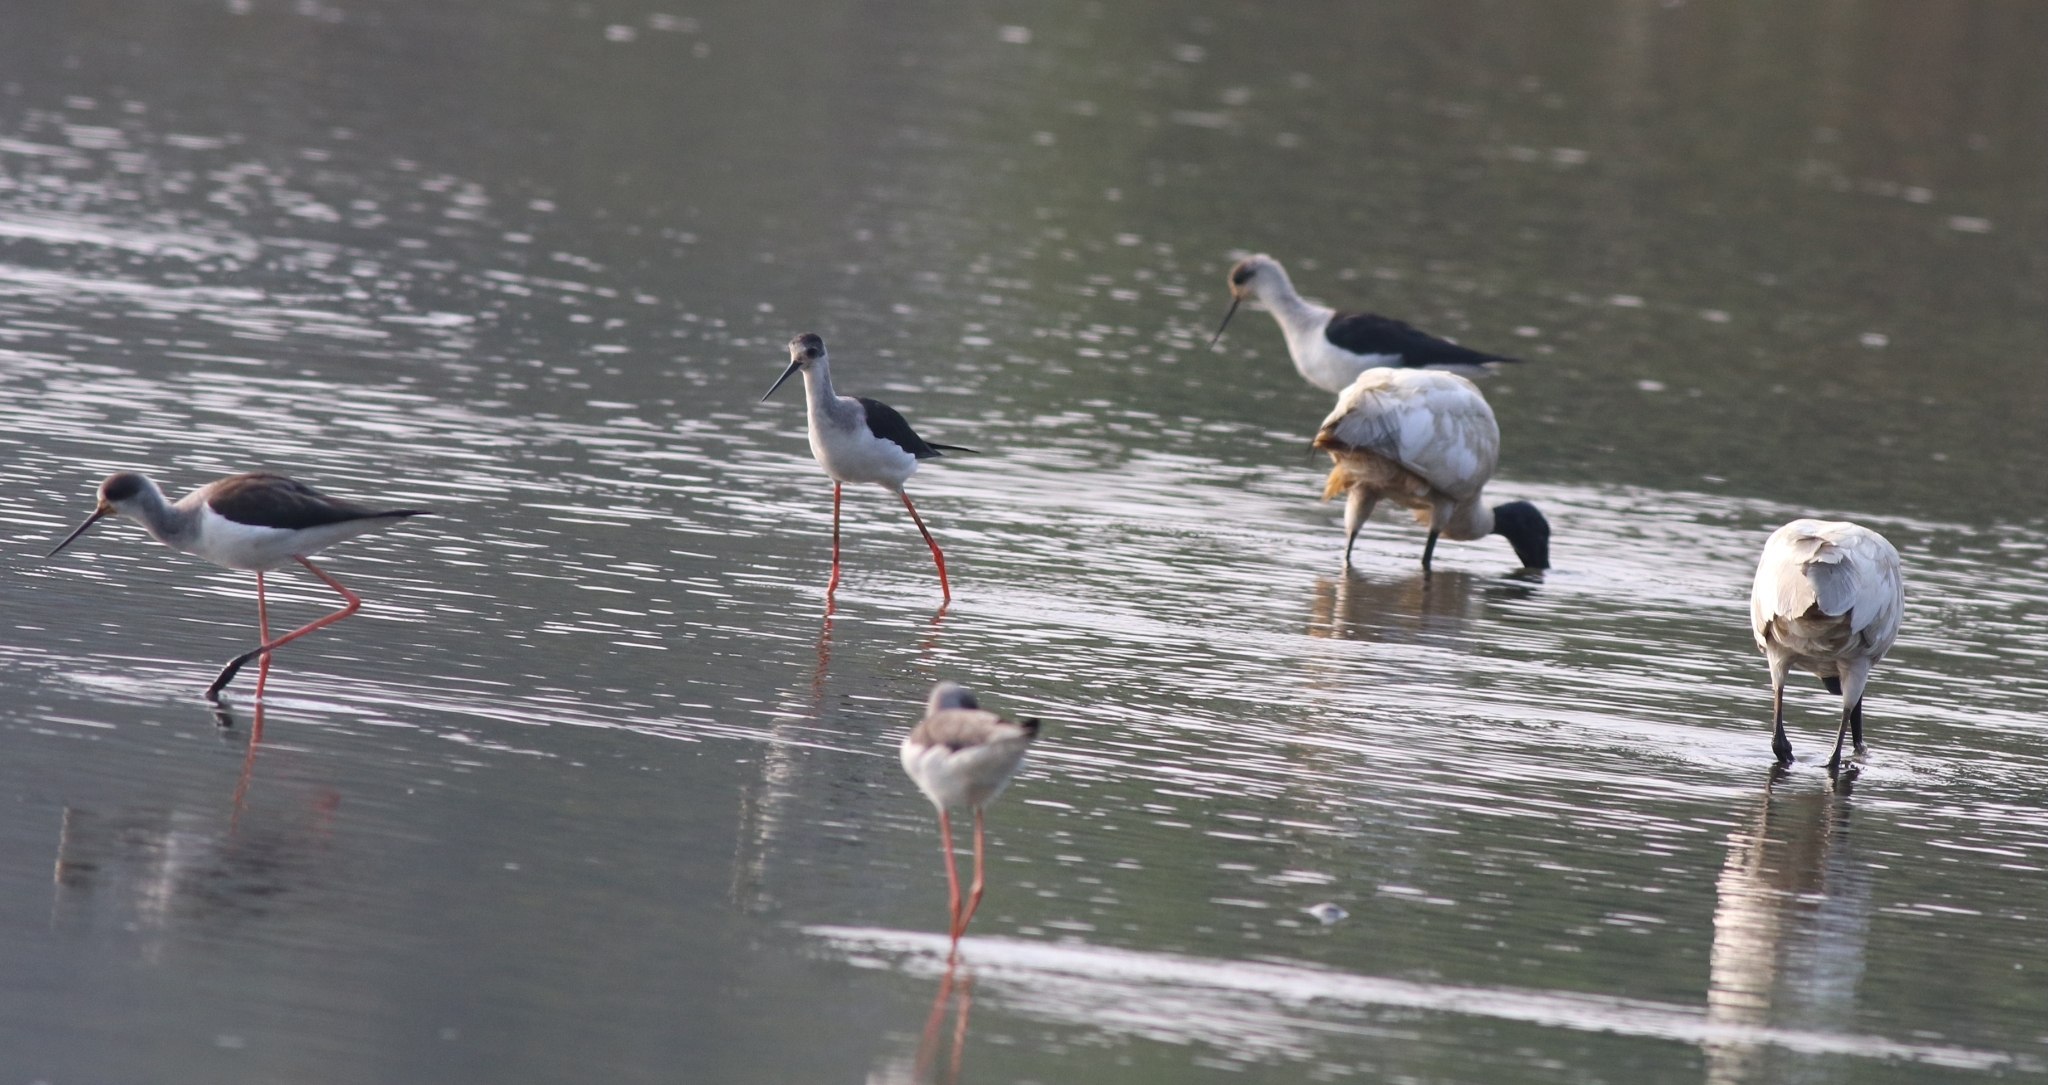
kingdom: Animalia
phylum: Chordata
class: Aves
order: Charadriiformes
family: Recurvirostridae
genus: Himantopus
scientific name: Himantopus himantopus
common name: Black-winged stilt
